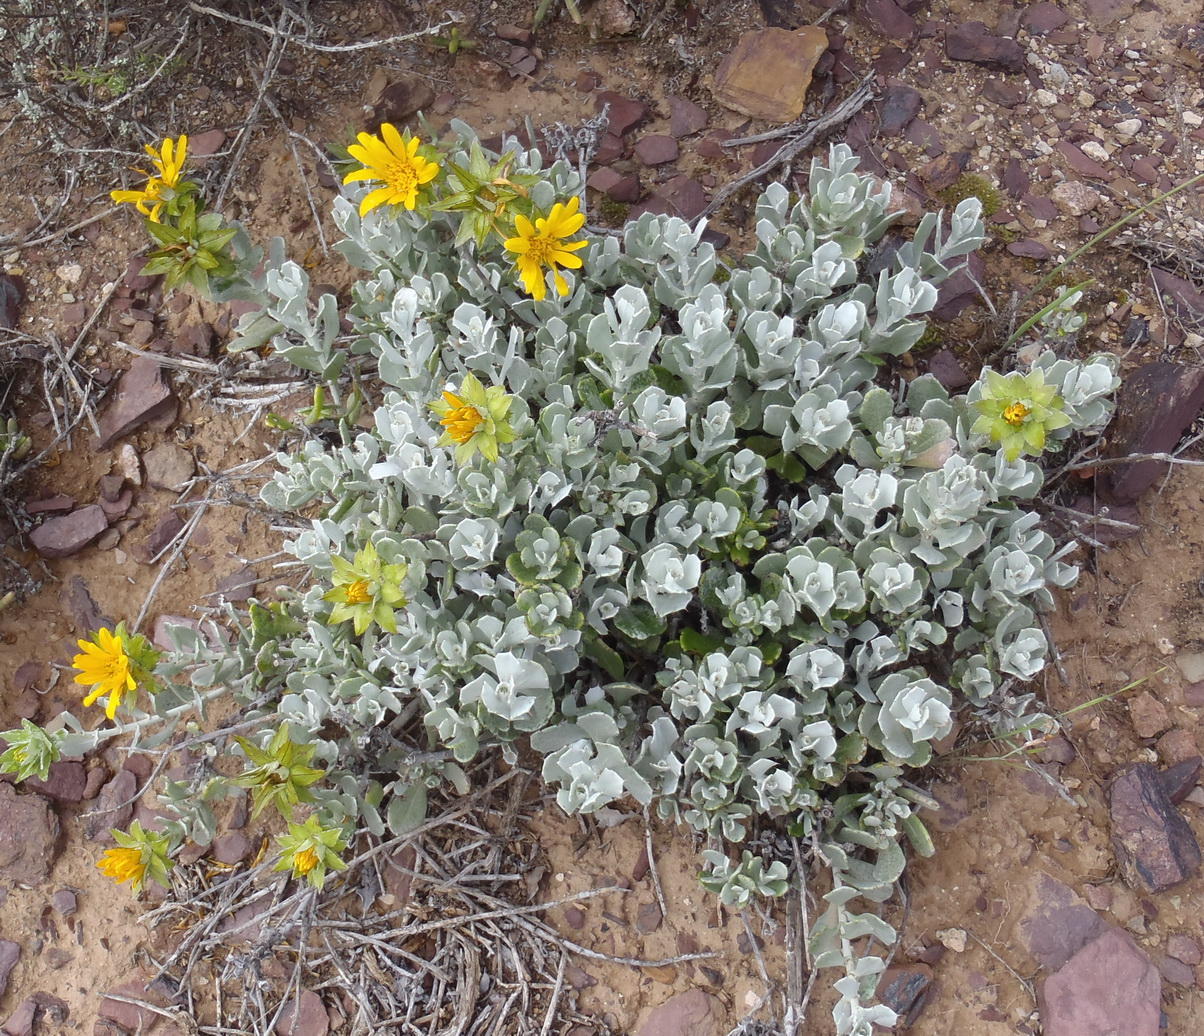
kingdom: Plantae
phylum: Tracheophyta
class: Magnoliopsida
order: Asterales
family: Asteraceae
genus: Berkheya
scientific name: Berkheya cuneata
